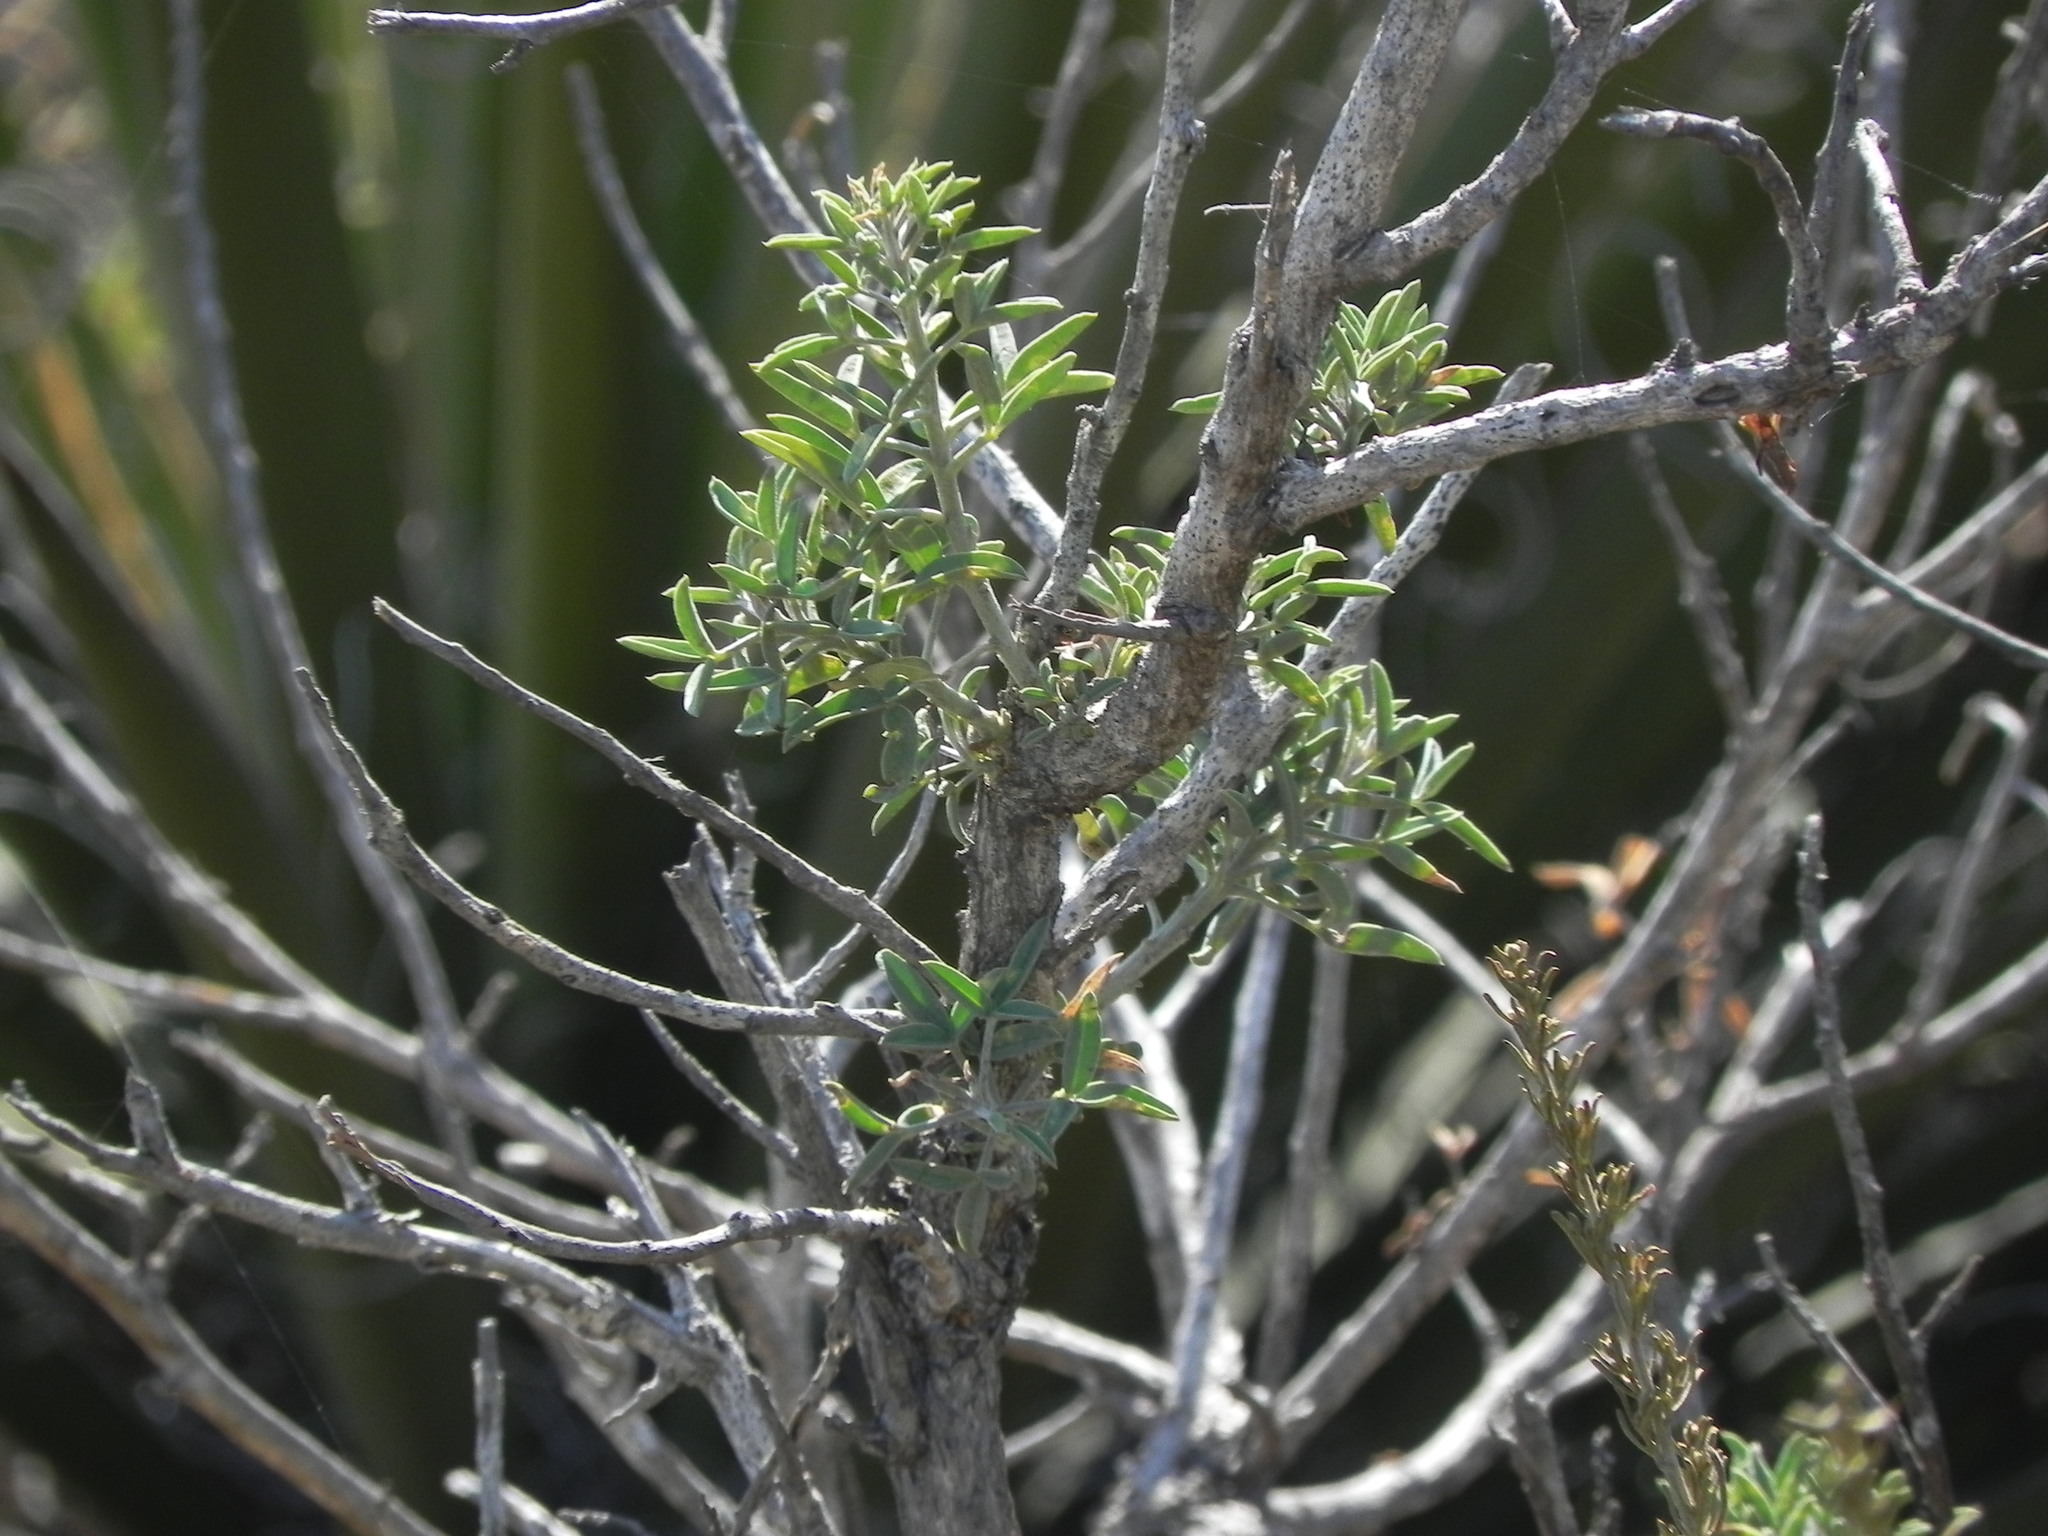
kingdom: Plantae
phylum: Tracheophyta
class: Magnoliopsida
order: Brassicales
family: Cleomaceae
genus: Cleomella
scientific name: Cleomella arborea
